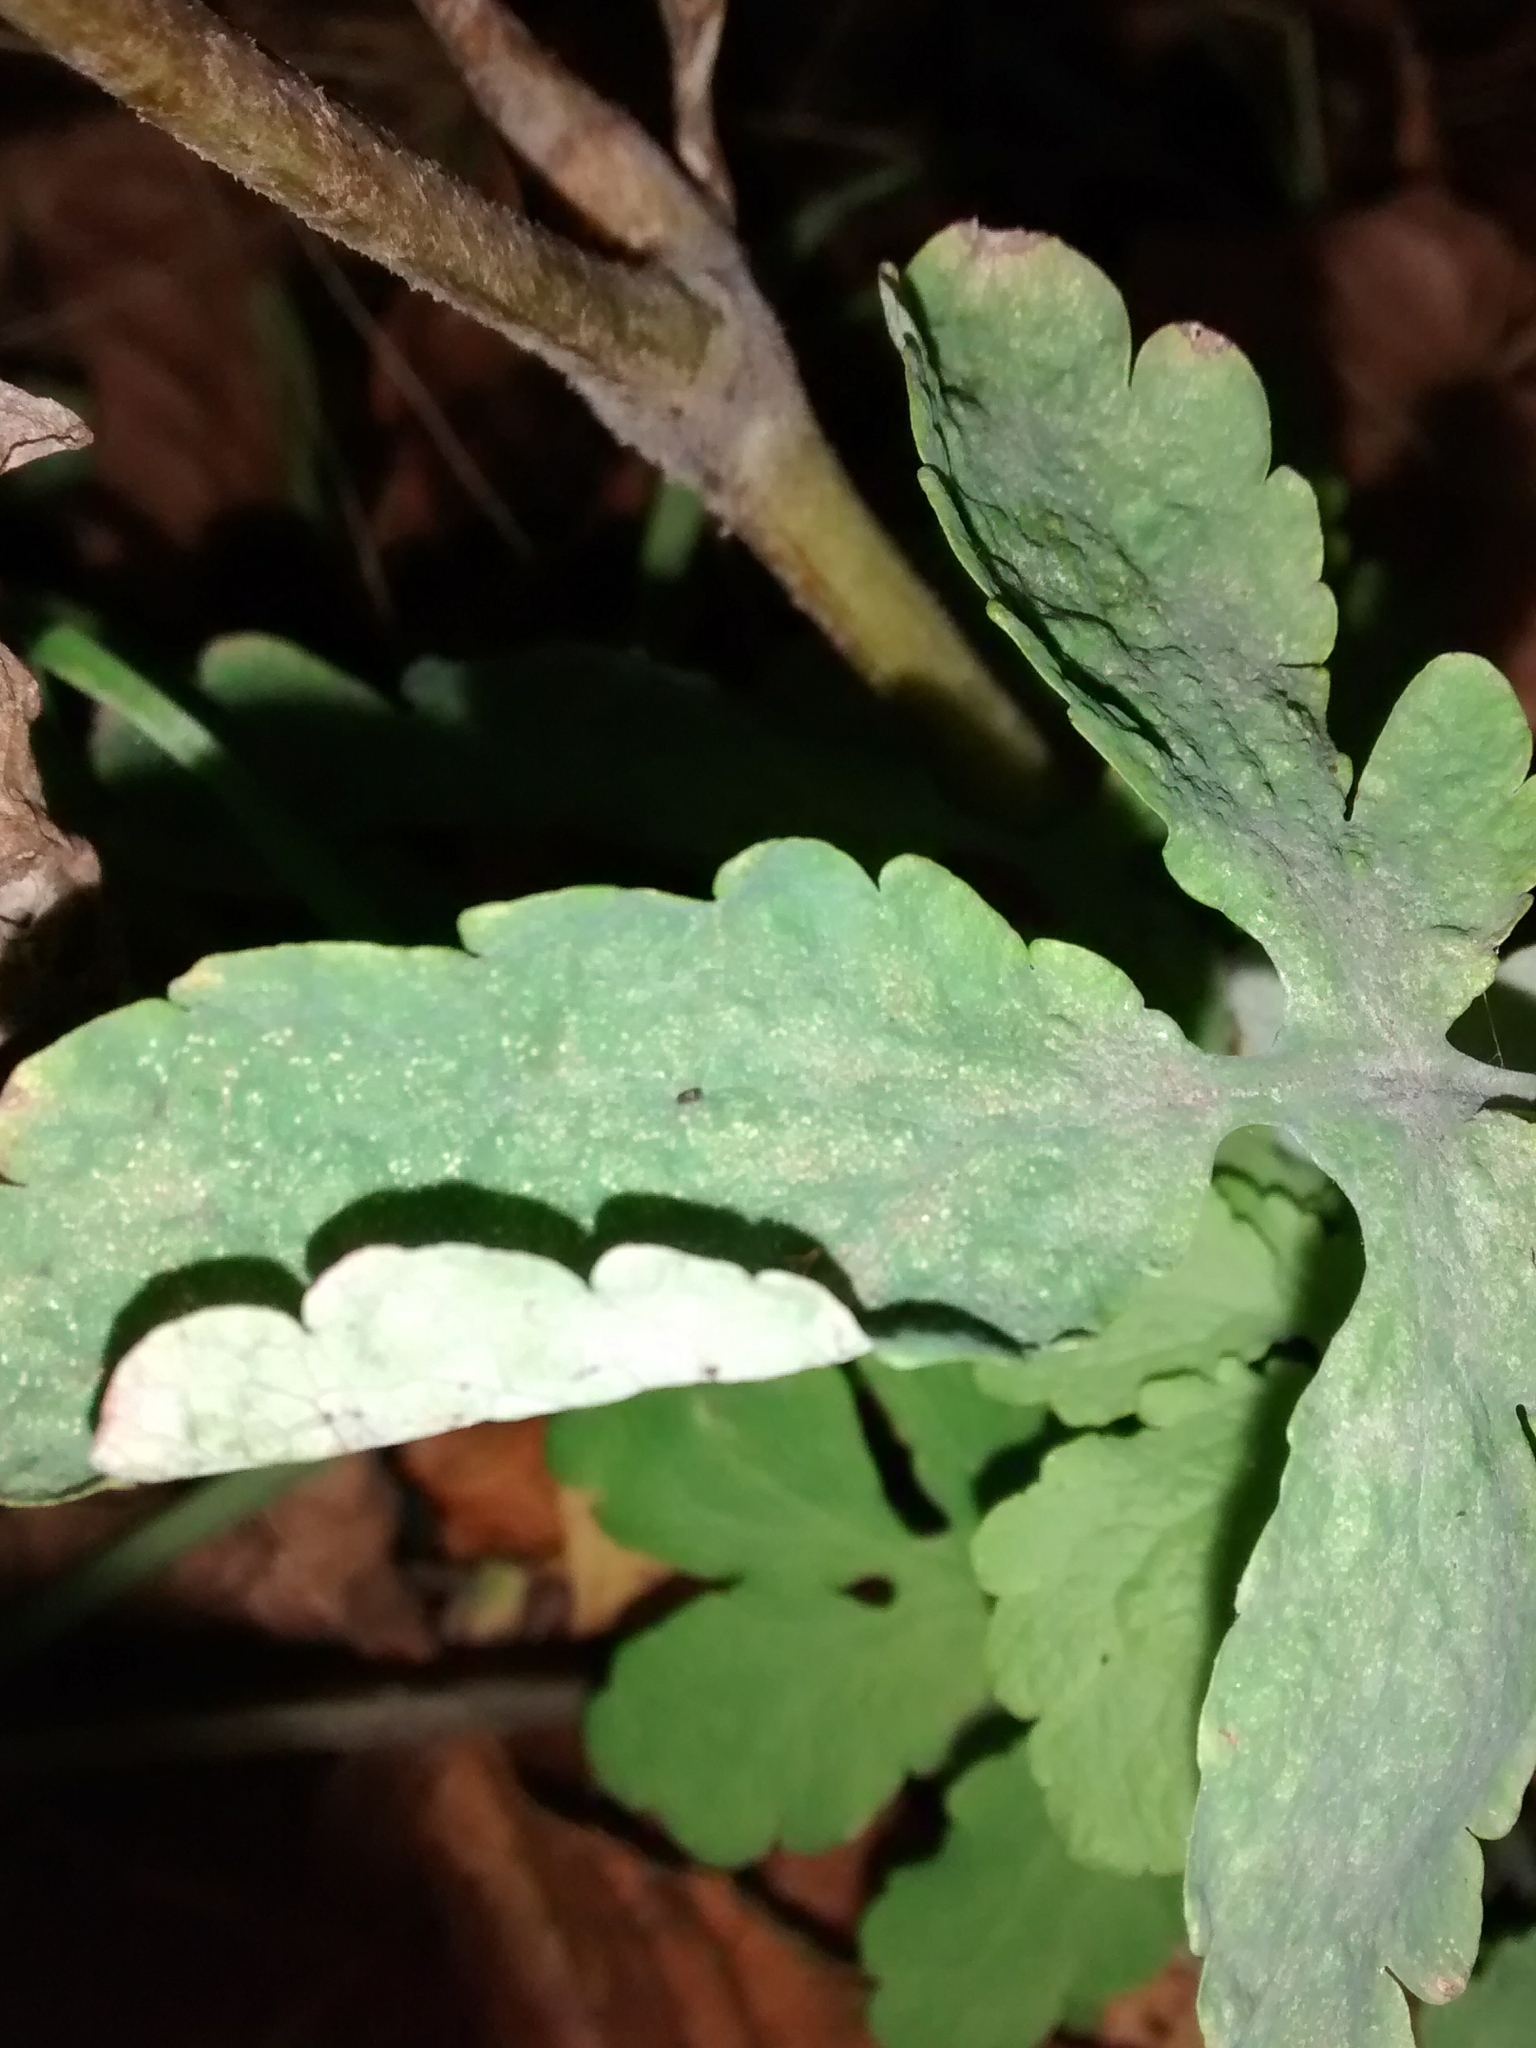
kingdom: Fungi
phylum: Ascomycota
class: Leotiomycetes
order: Helotiales
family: Erysiphaceae
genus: Erysiphe
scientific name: Erysiphe macleayae
